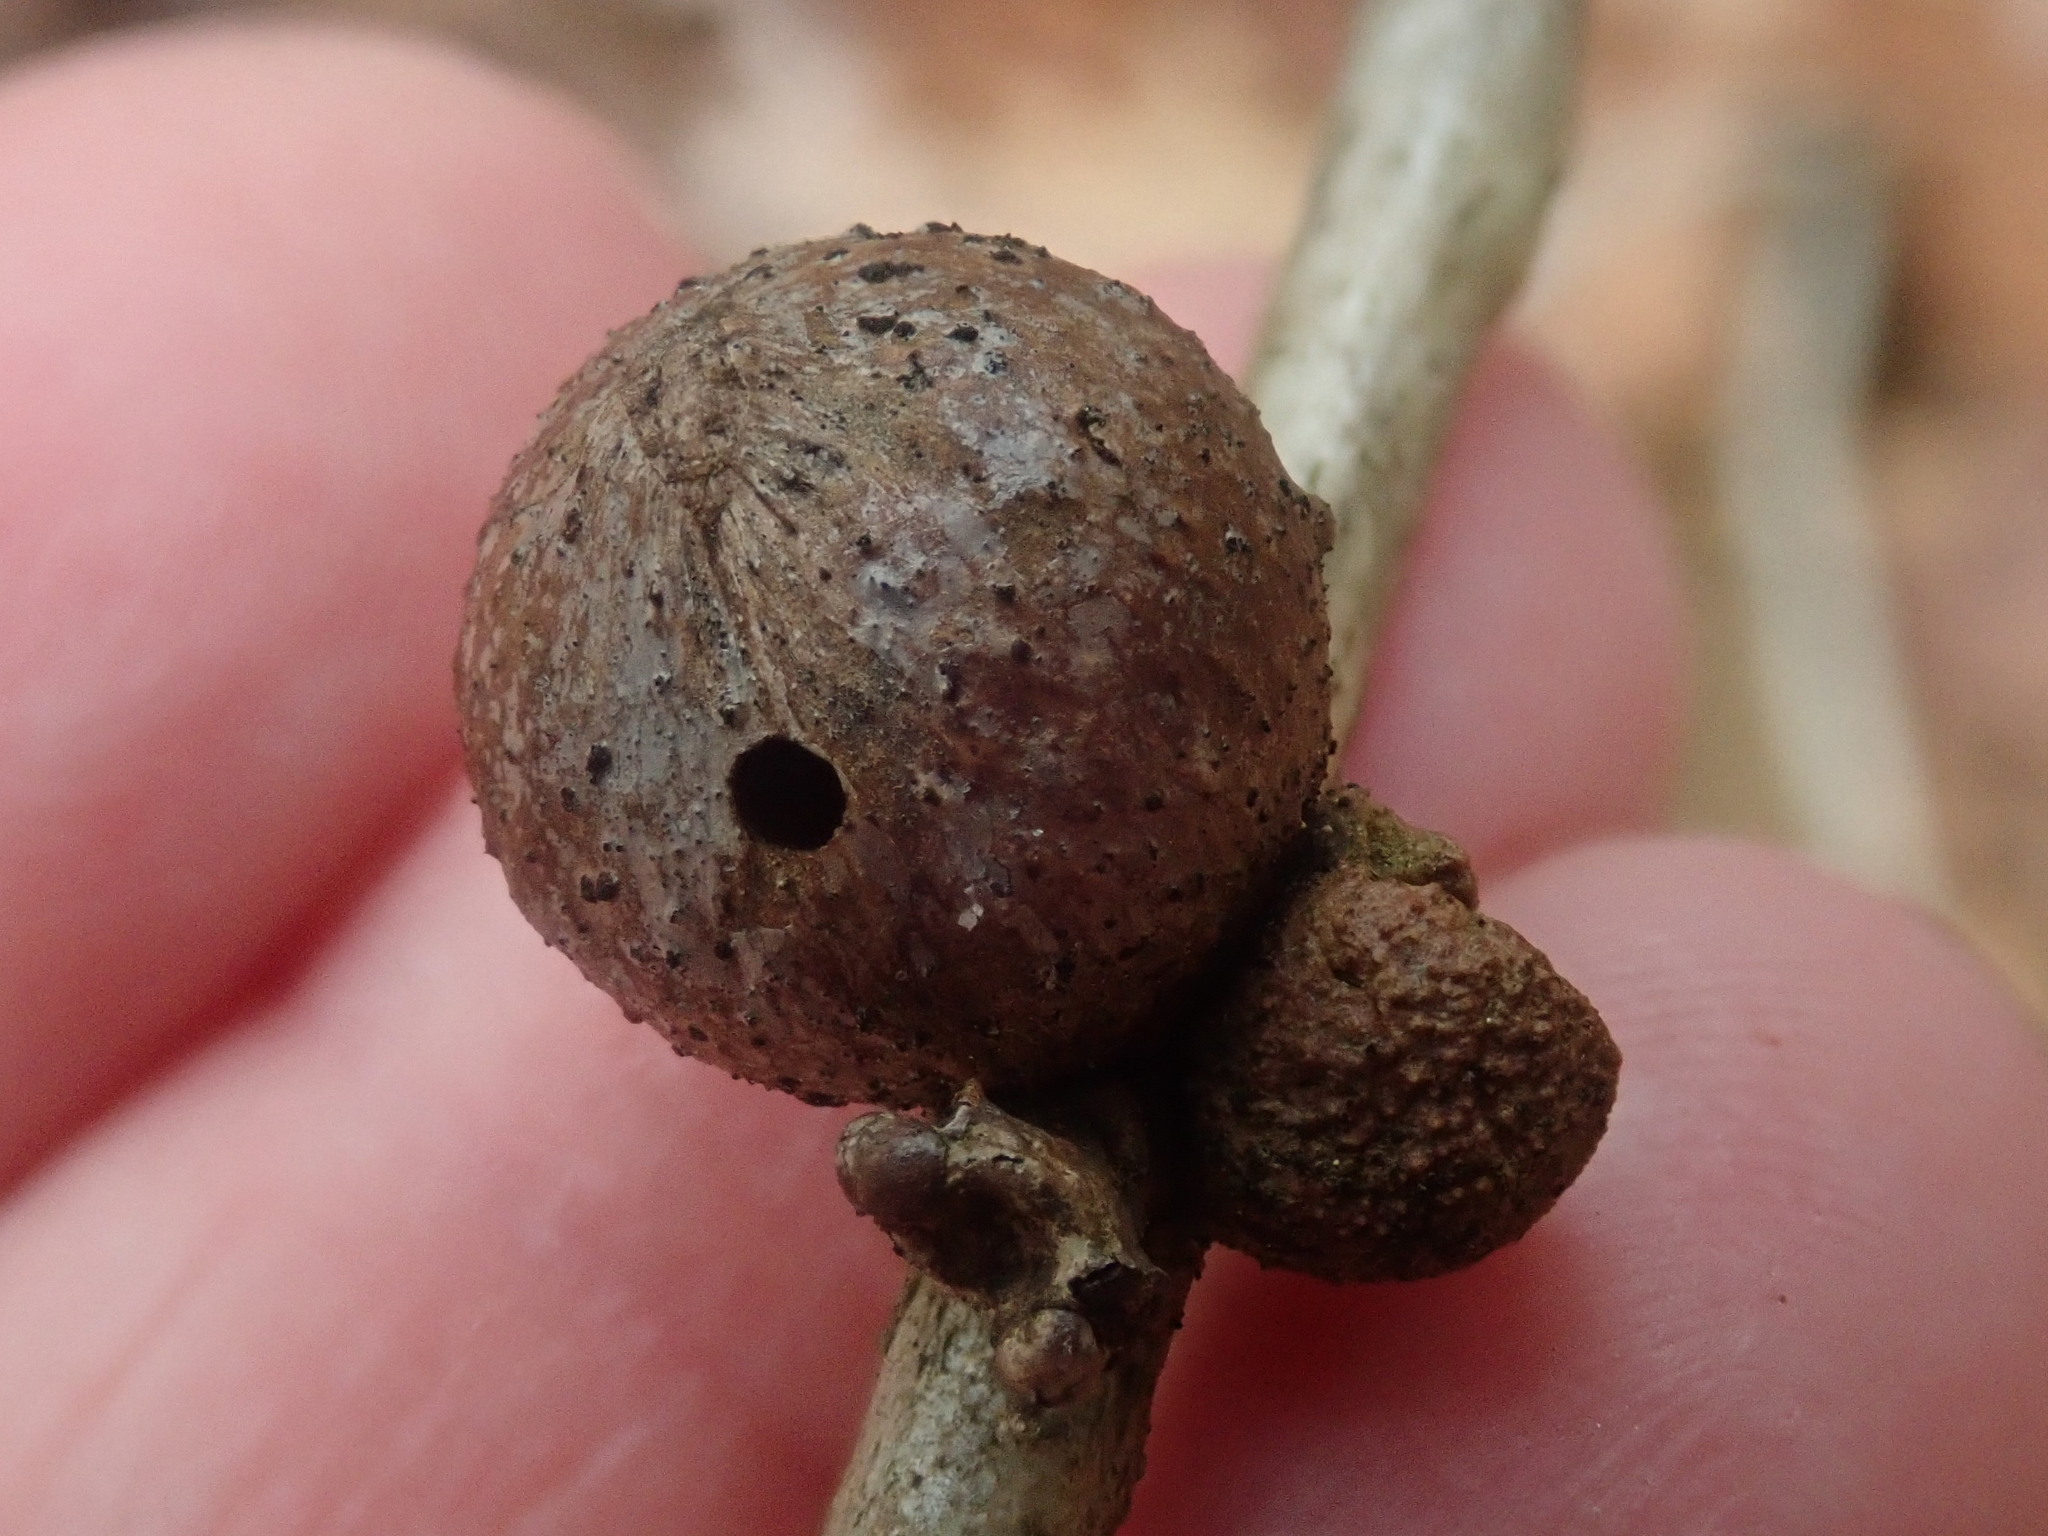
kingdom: Animalia
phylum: Arthropoda
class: Insecta
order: Hymenoptera
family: Cynipidae
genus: Disholcaspis
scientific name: Disholcaspis quercusglobulus
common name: Round bullet gall wasp
